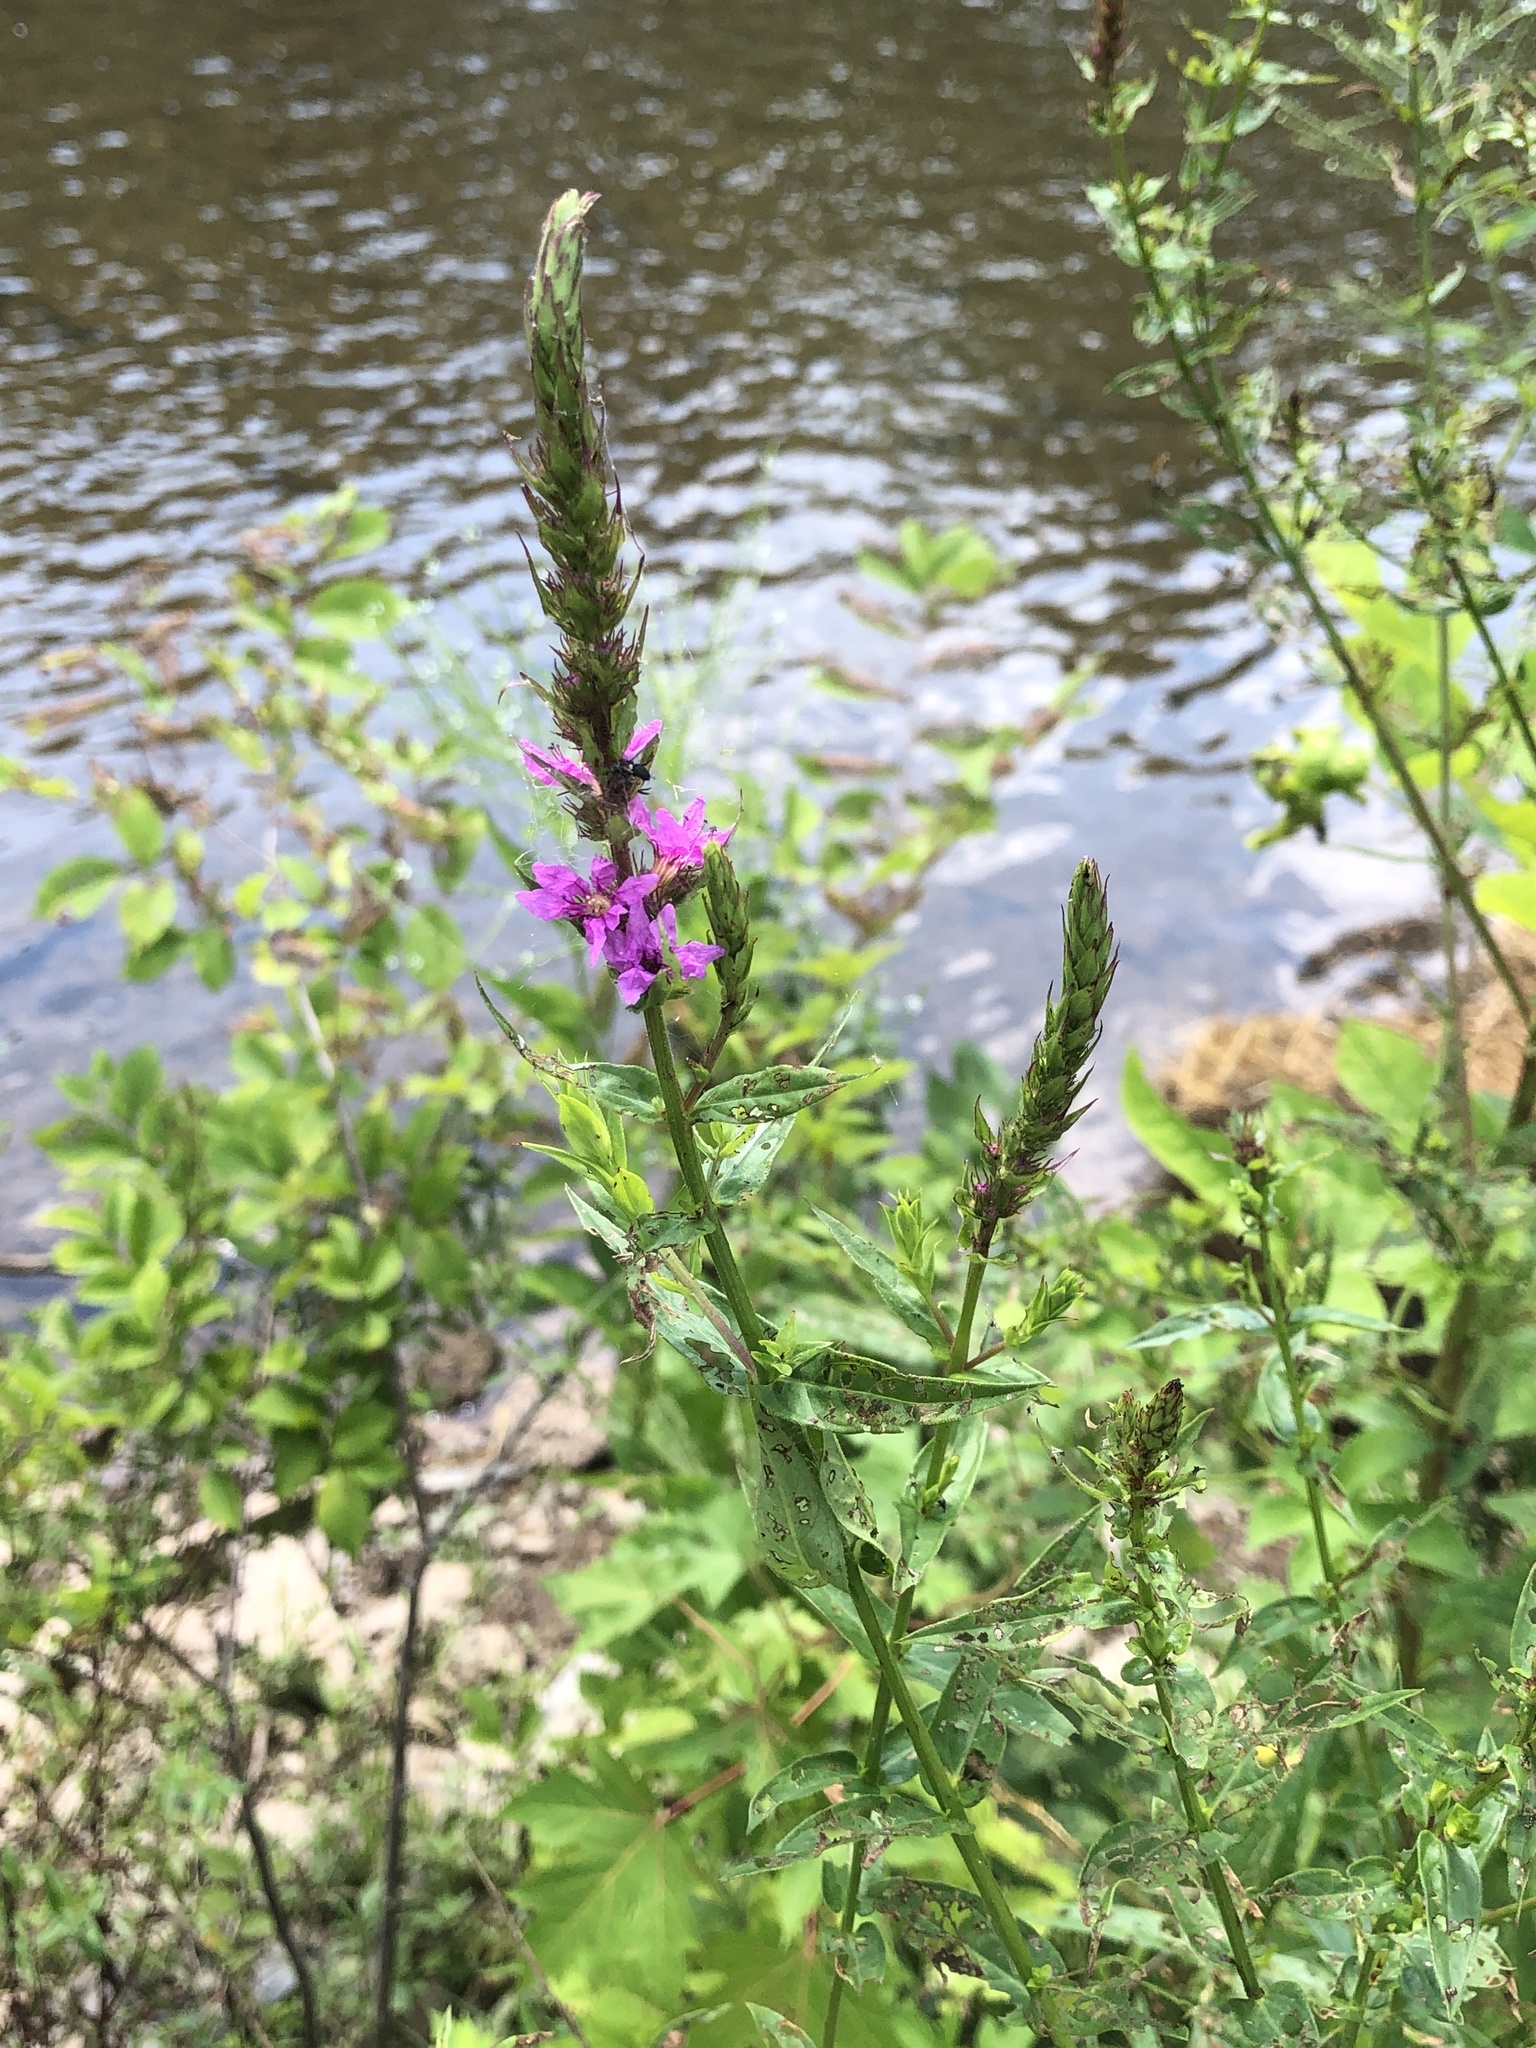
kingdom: Plantae
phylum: Tracheophyta
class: Magnoliopsida
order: Myrtales
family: Lythraceae
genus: Lythrum
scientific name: Lythrum salicaria
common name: Purple loosestrife
